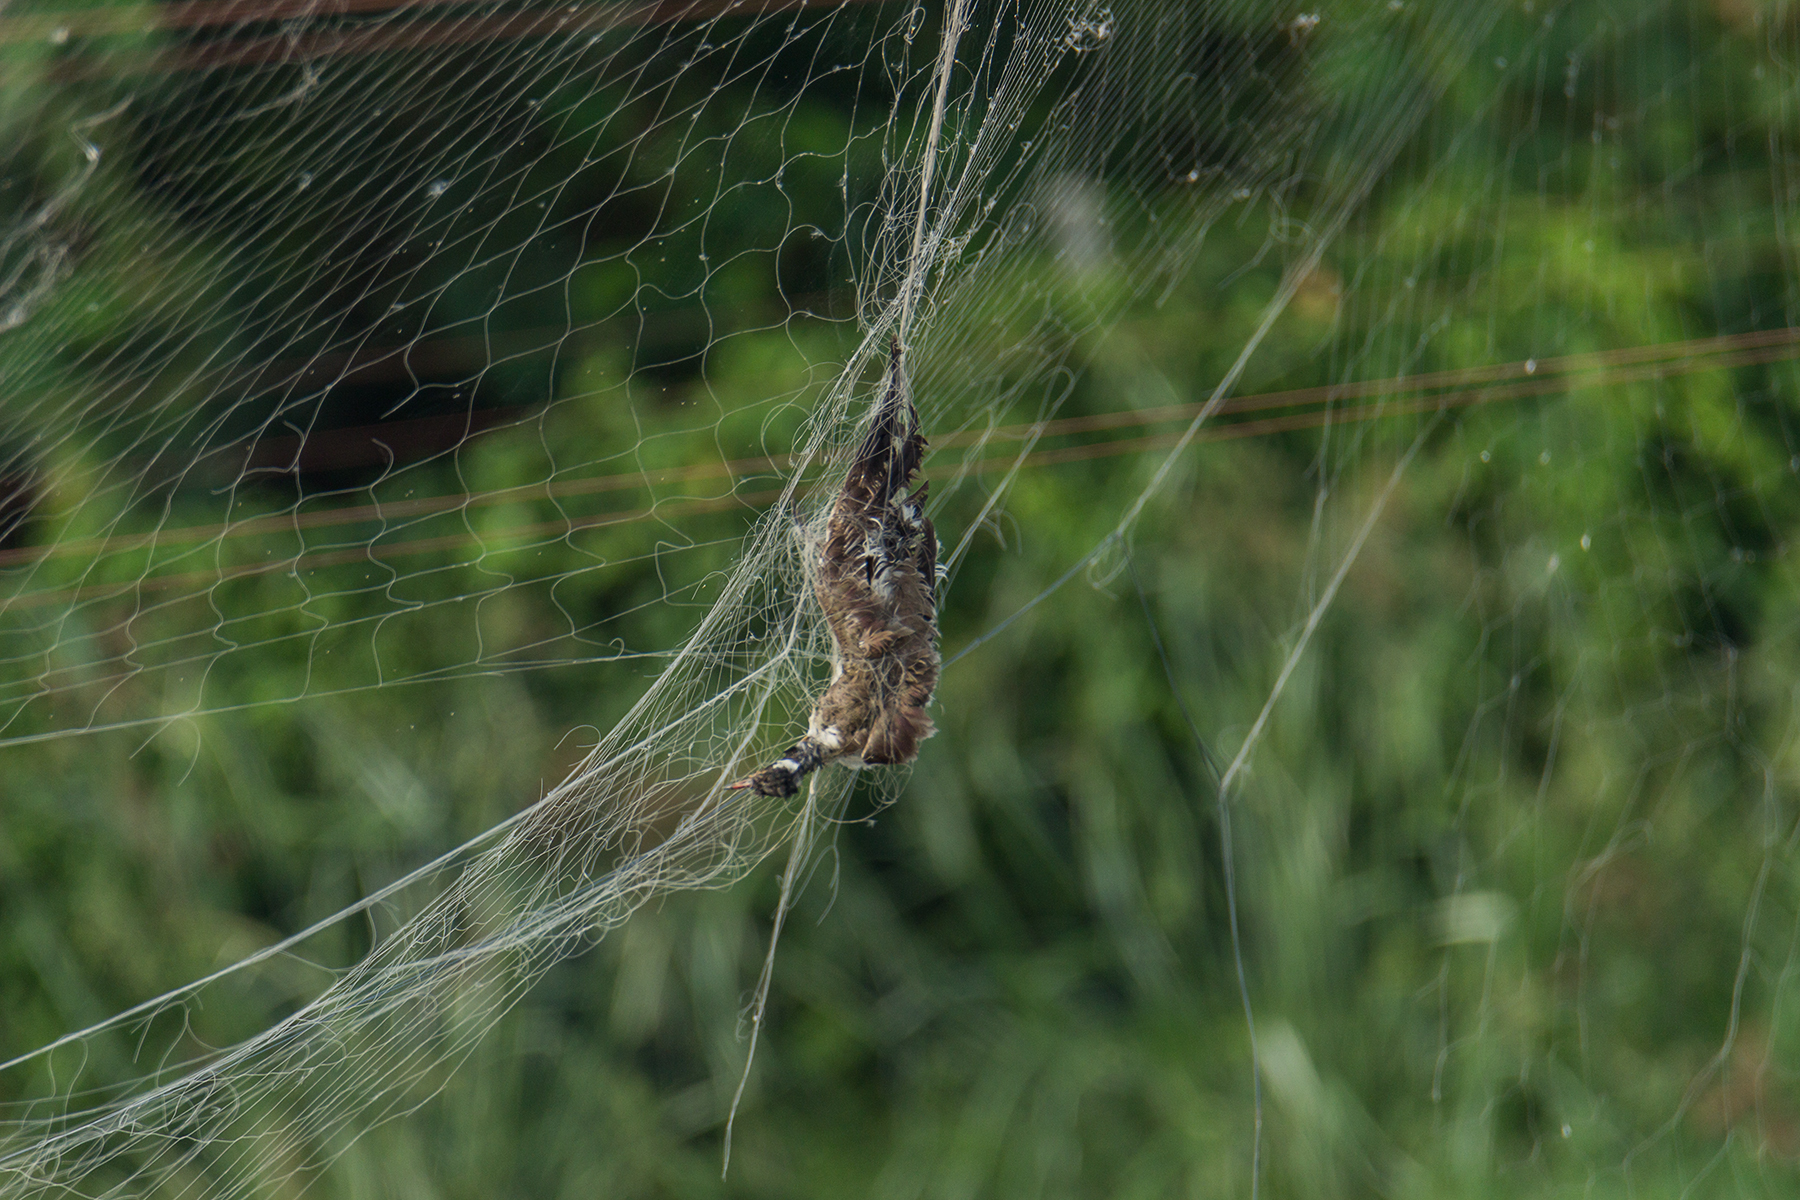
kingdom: Animalia
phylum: Chordata
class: Aves
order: Charadriiformes
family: Charadriidae
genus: Vanellus
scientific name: Vanellus indicus
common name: Red-wattled lapwing
